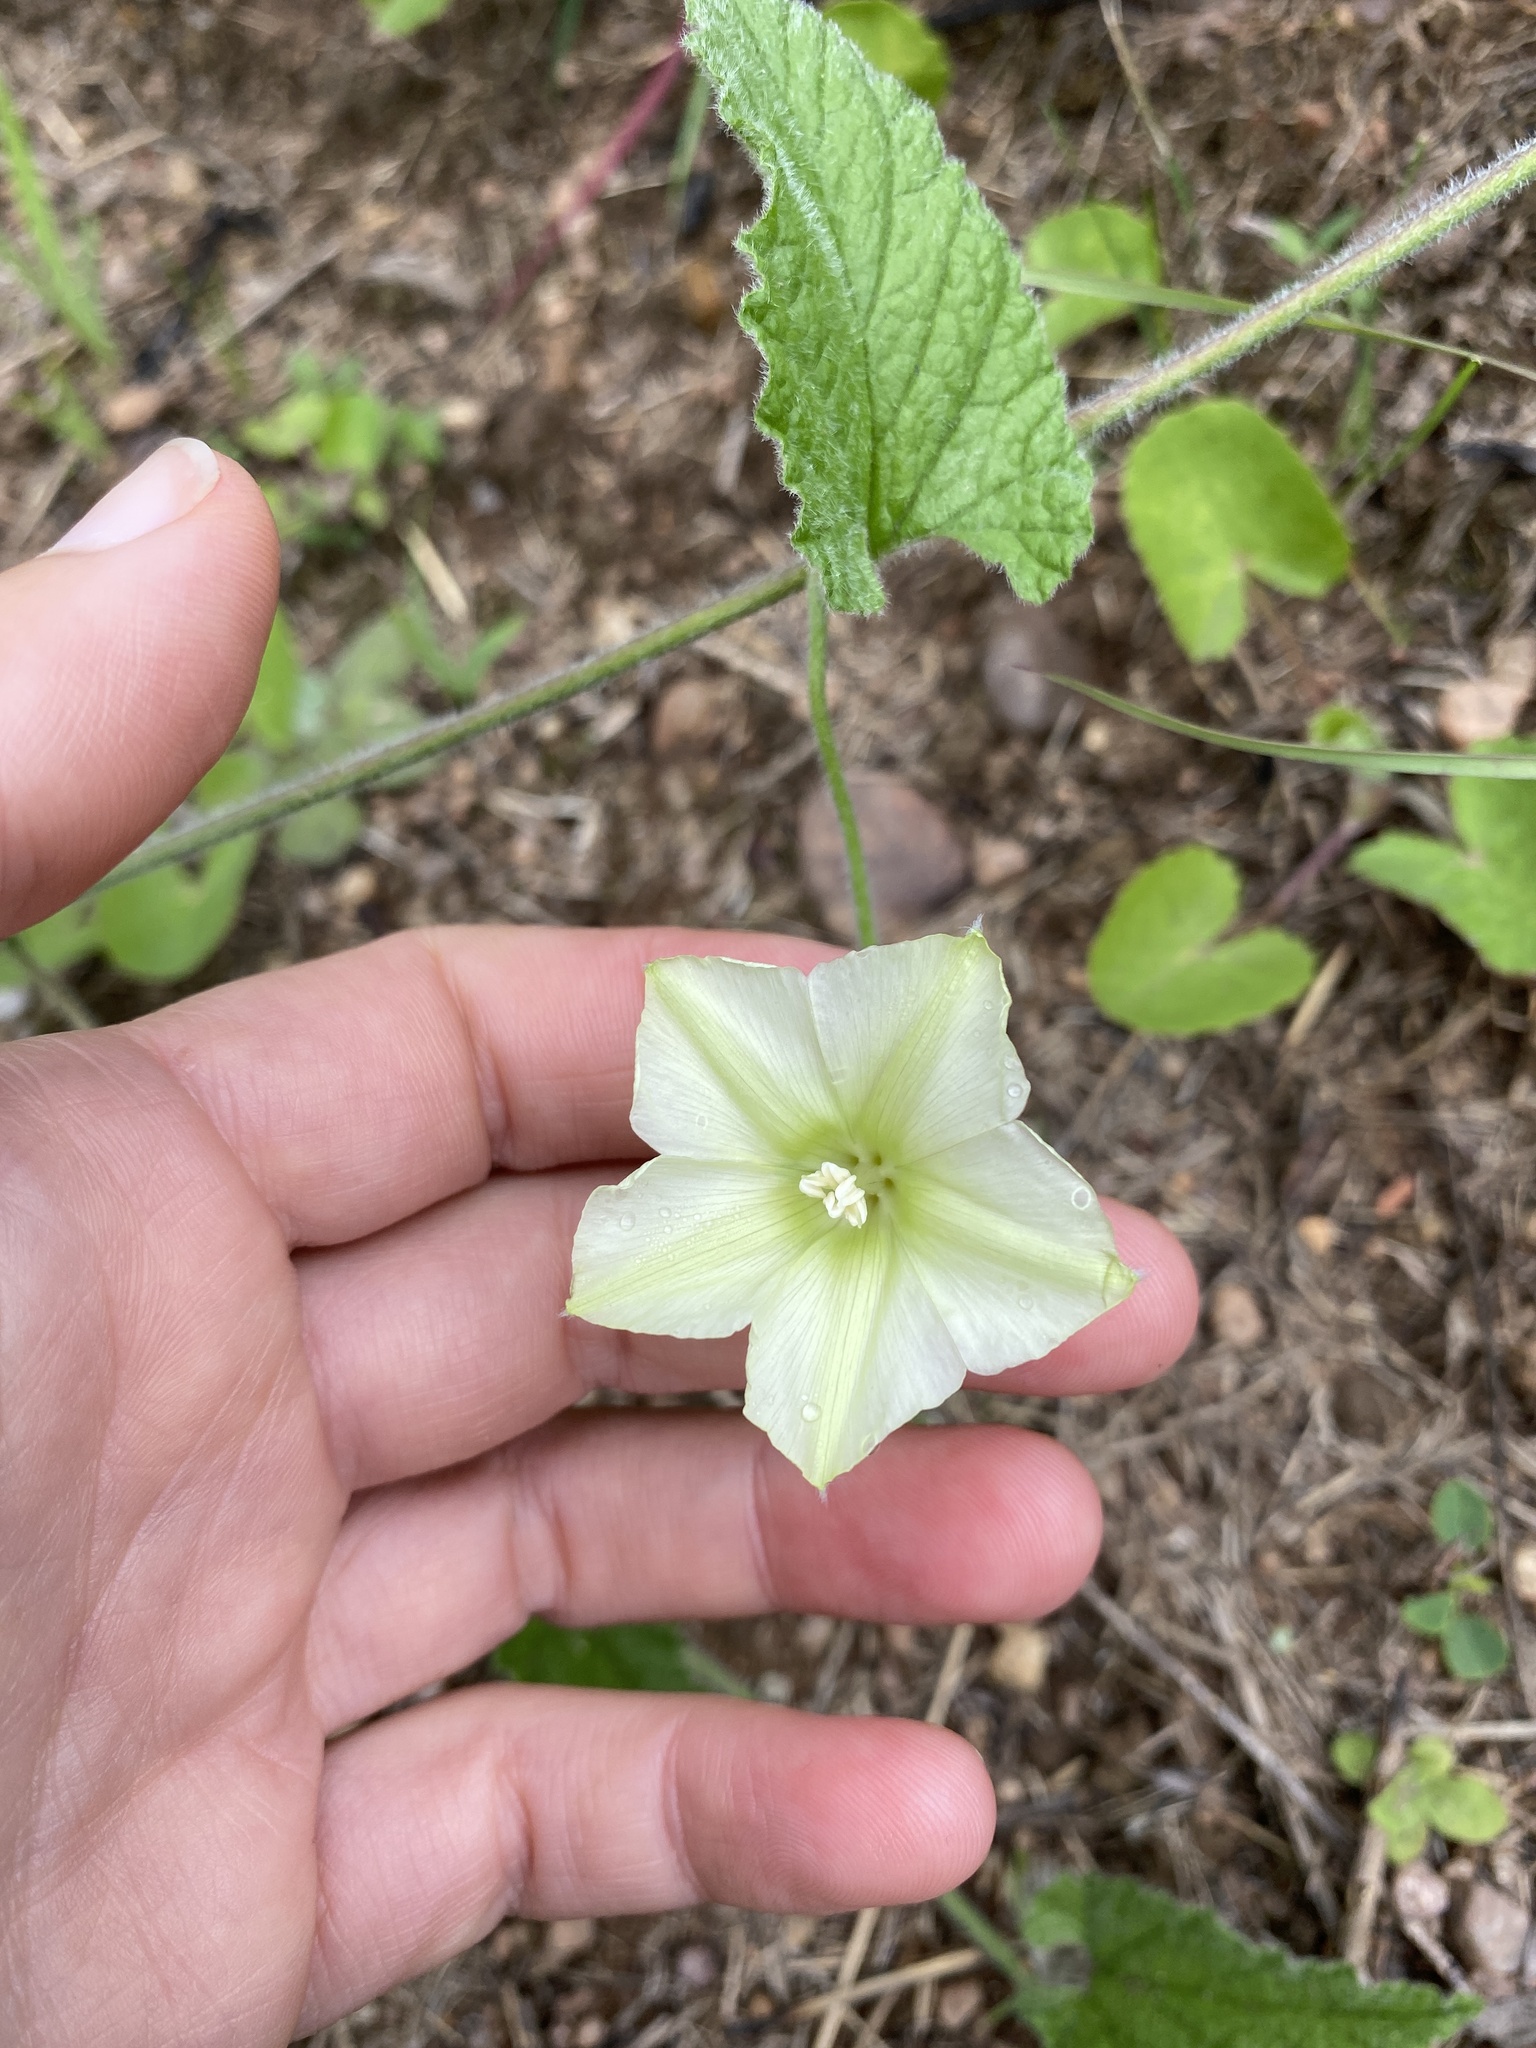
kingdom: Plantae
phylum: Tracheophyta
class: Magnoliopsida
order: Solanales
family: Convolvulaceae
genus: Convolvulus
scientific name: Convolvulus sagittatus
